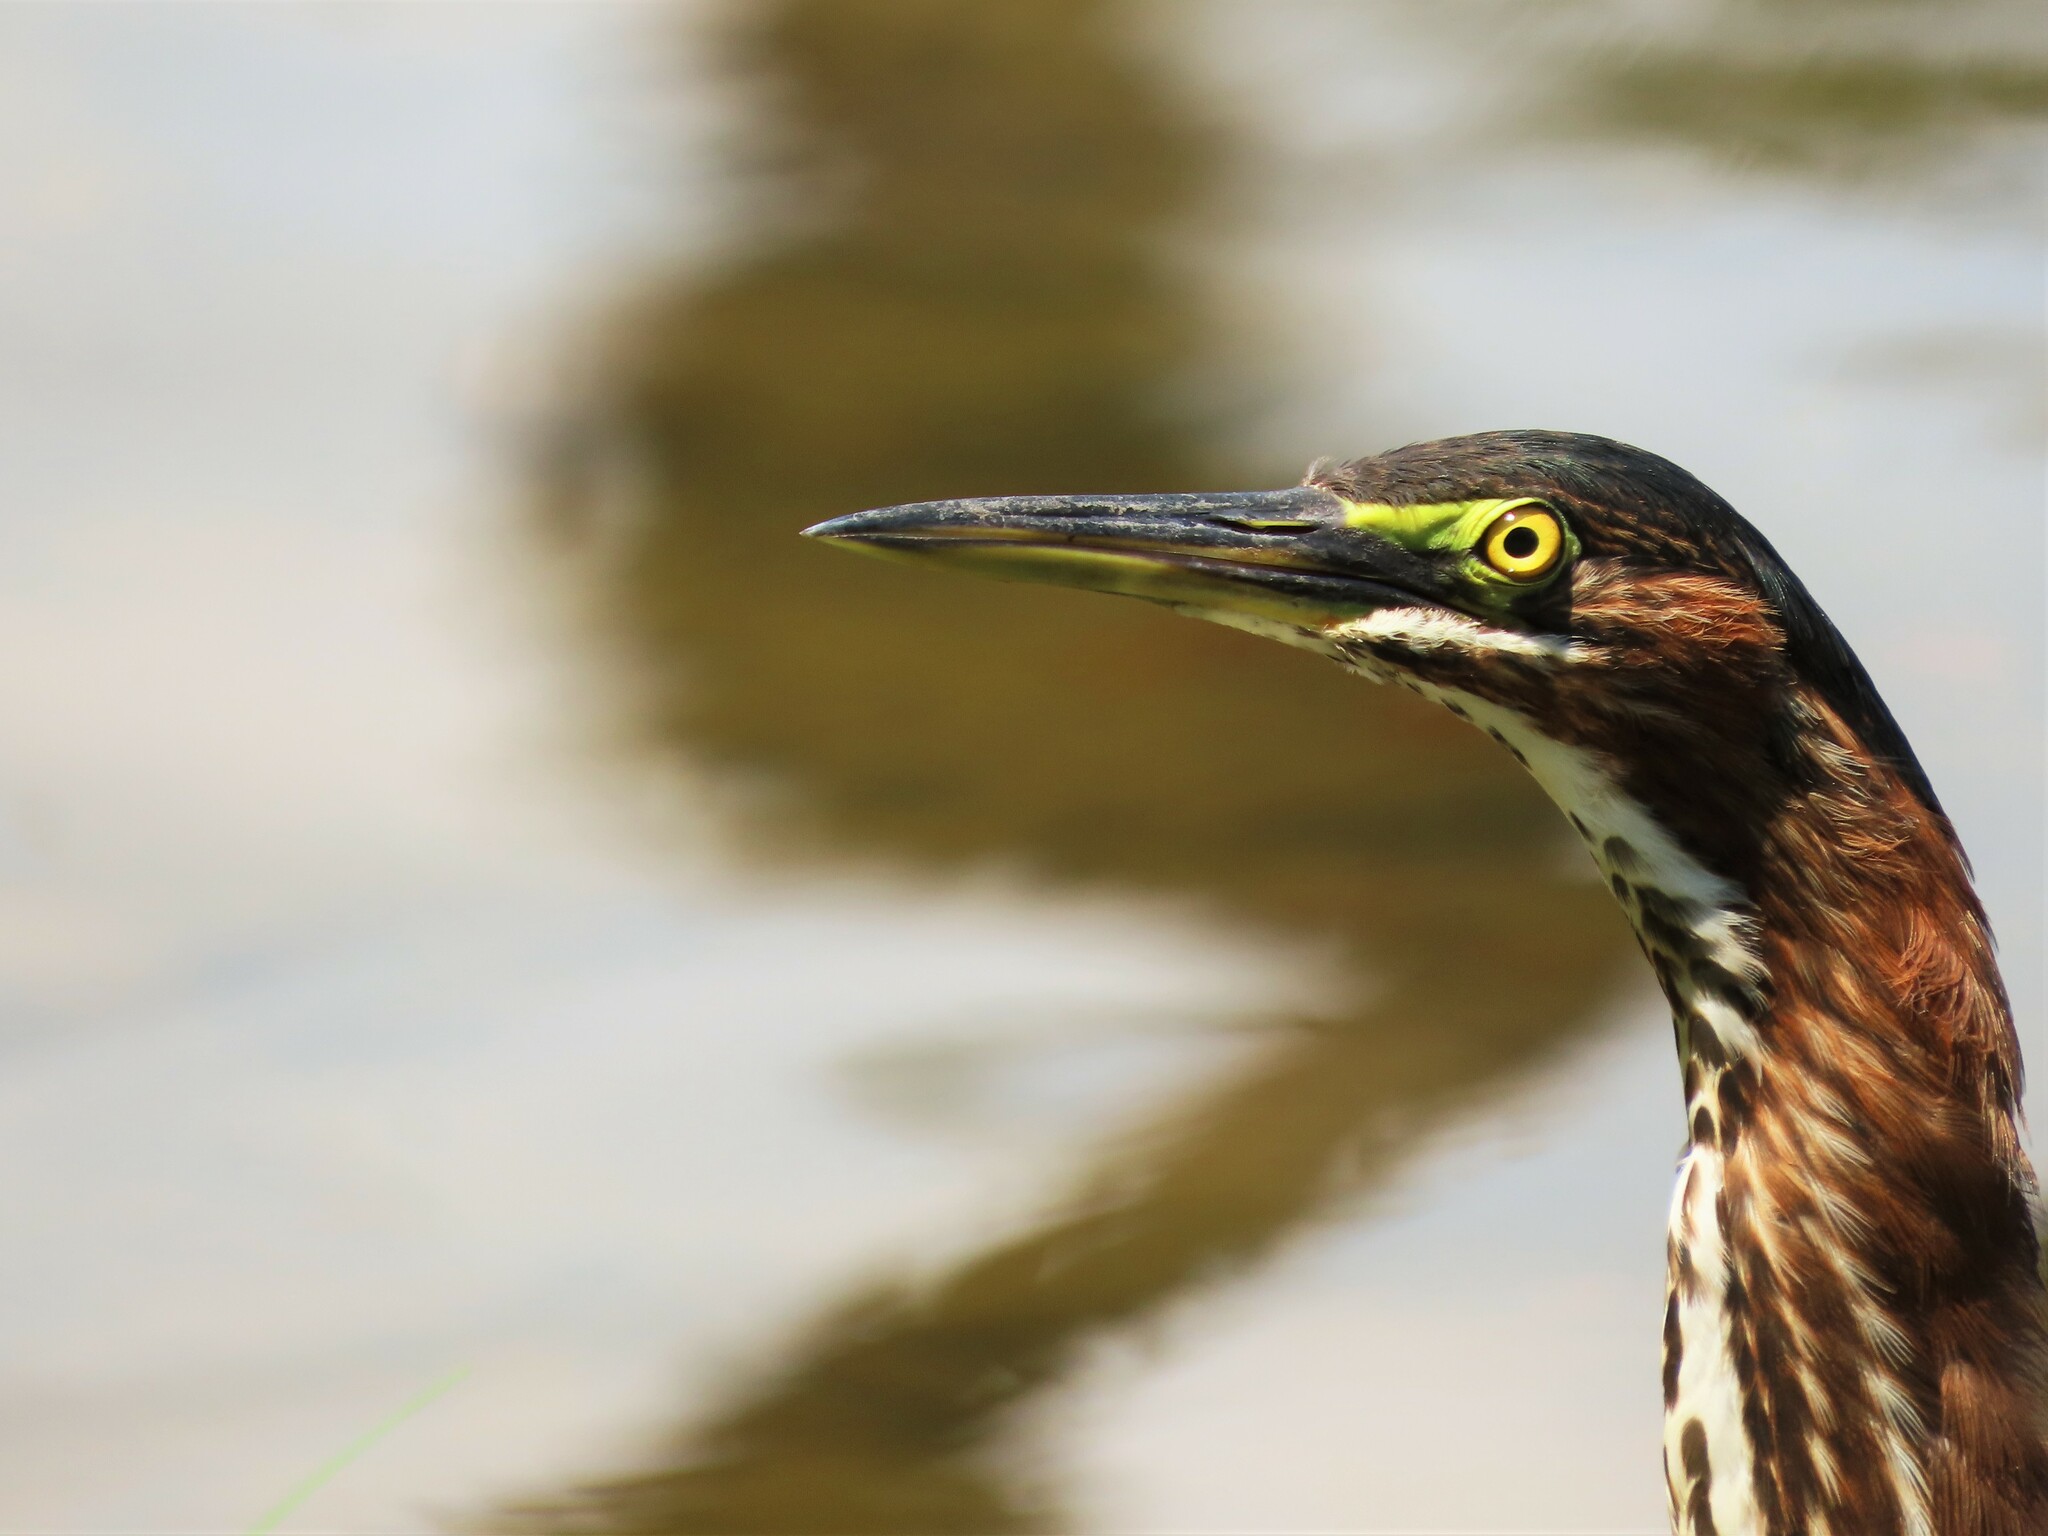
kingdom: Animalia
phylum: Chordata
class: Aves
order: Pelecaniformes
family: Ardeidae
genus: Butorides
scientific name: Butorides virescens
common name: Green heron
